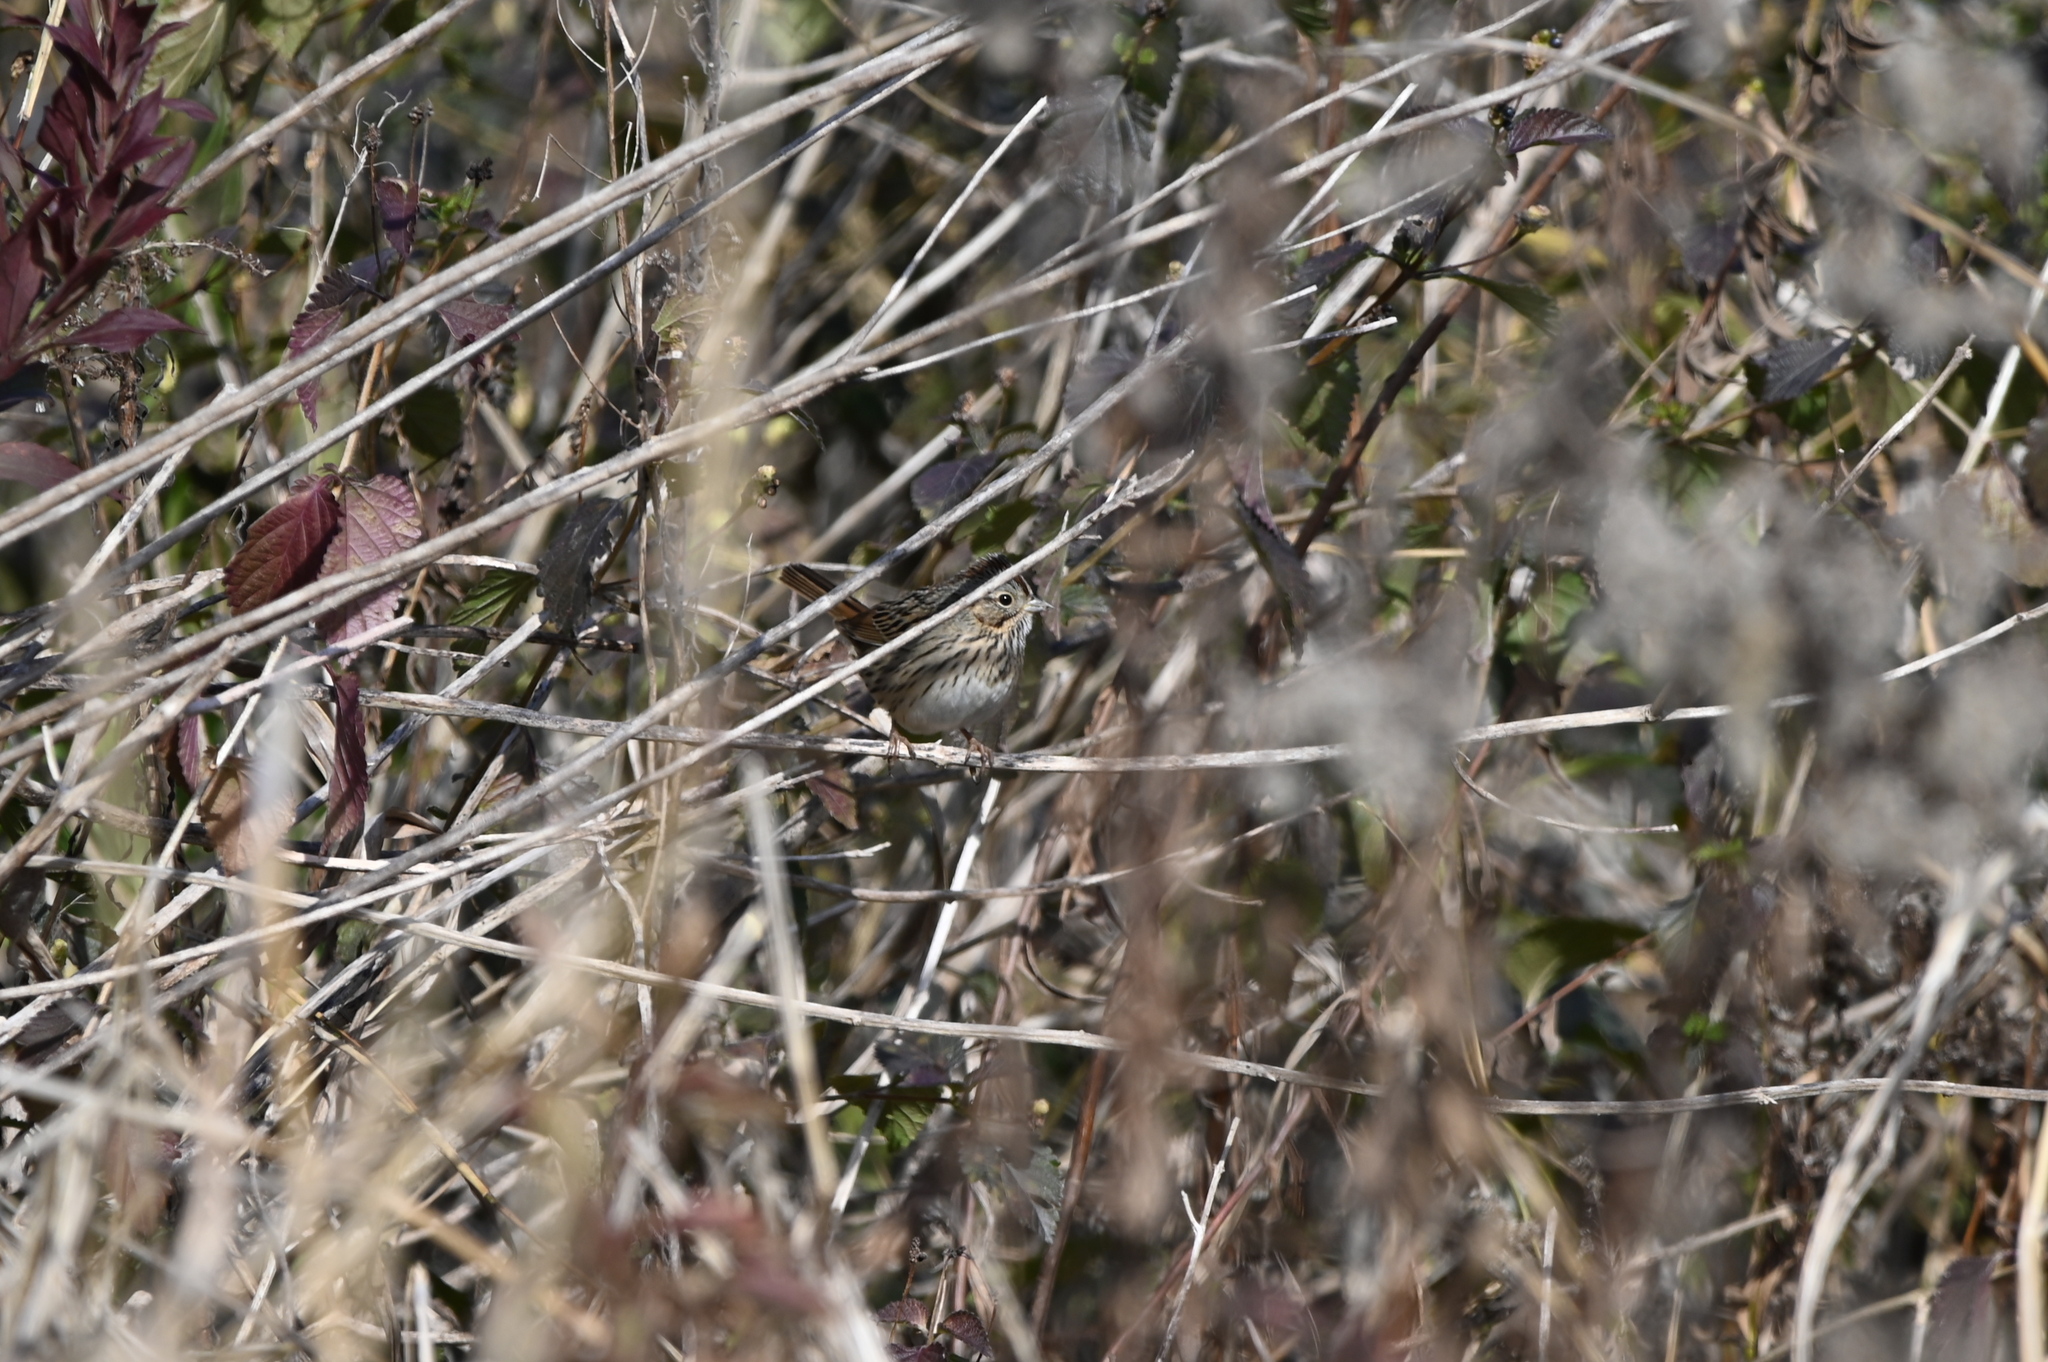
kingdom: Animalia
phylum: Chordata
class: Aves
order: Passeriformes
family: Passerellidae
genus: Melospiza
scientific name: Melospiza lincolnii
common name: Lincoln's sparrow
